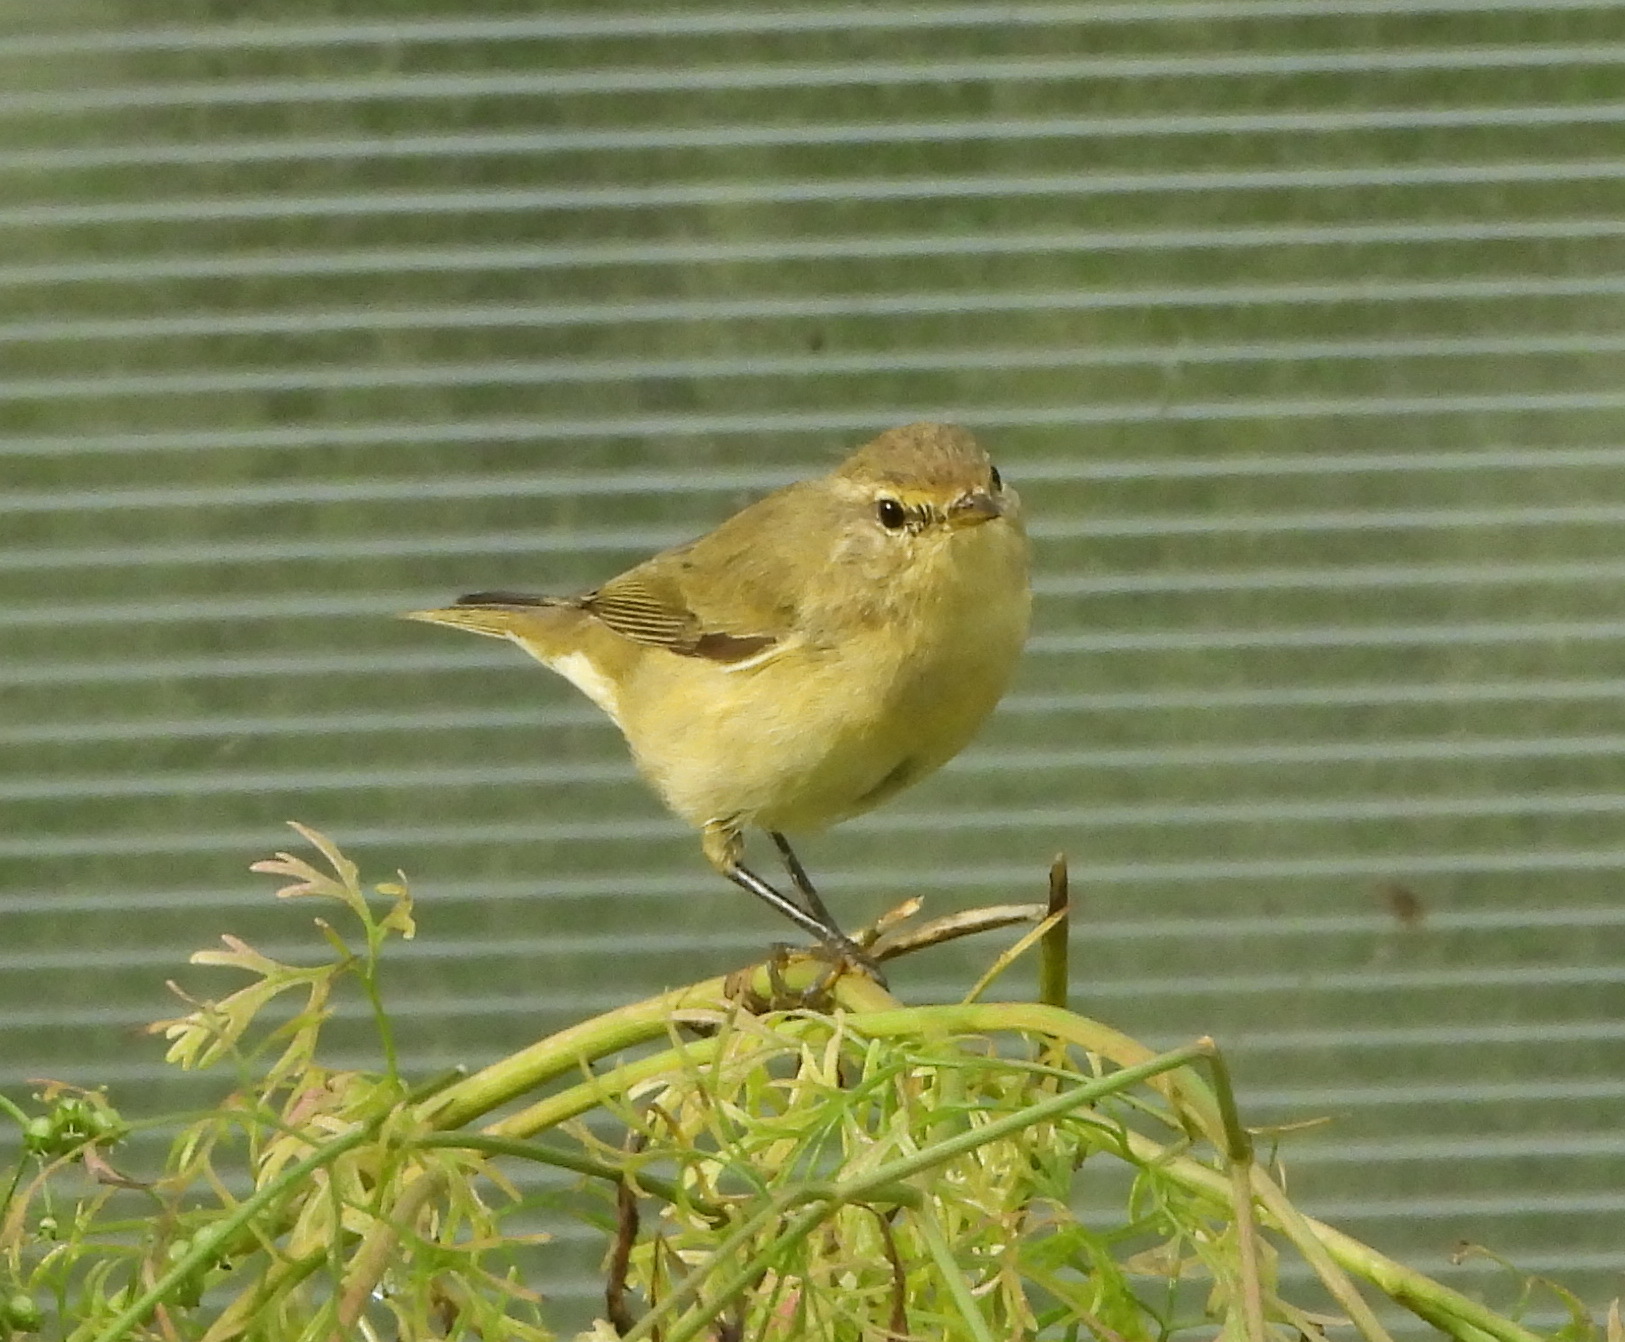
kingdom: Animalia
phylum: Chordata
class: Aves
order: Passeriformes
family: Phylloscopidae
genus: Phylloscopus
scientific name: Phylloscopus collybita
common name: Common chiffchaff
